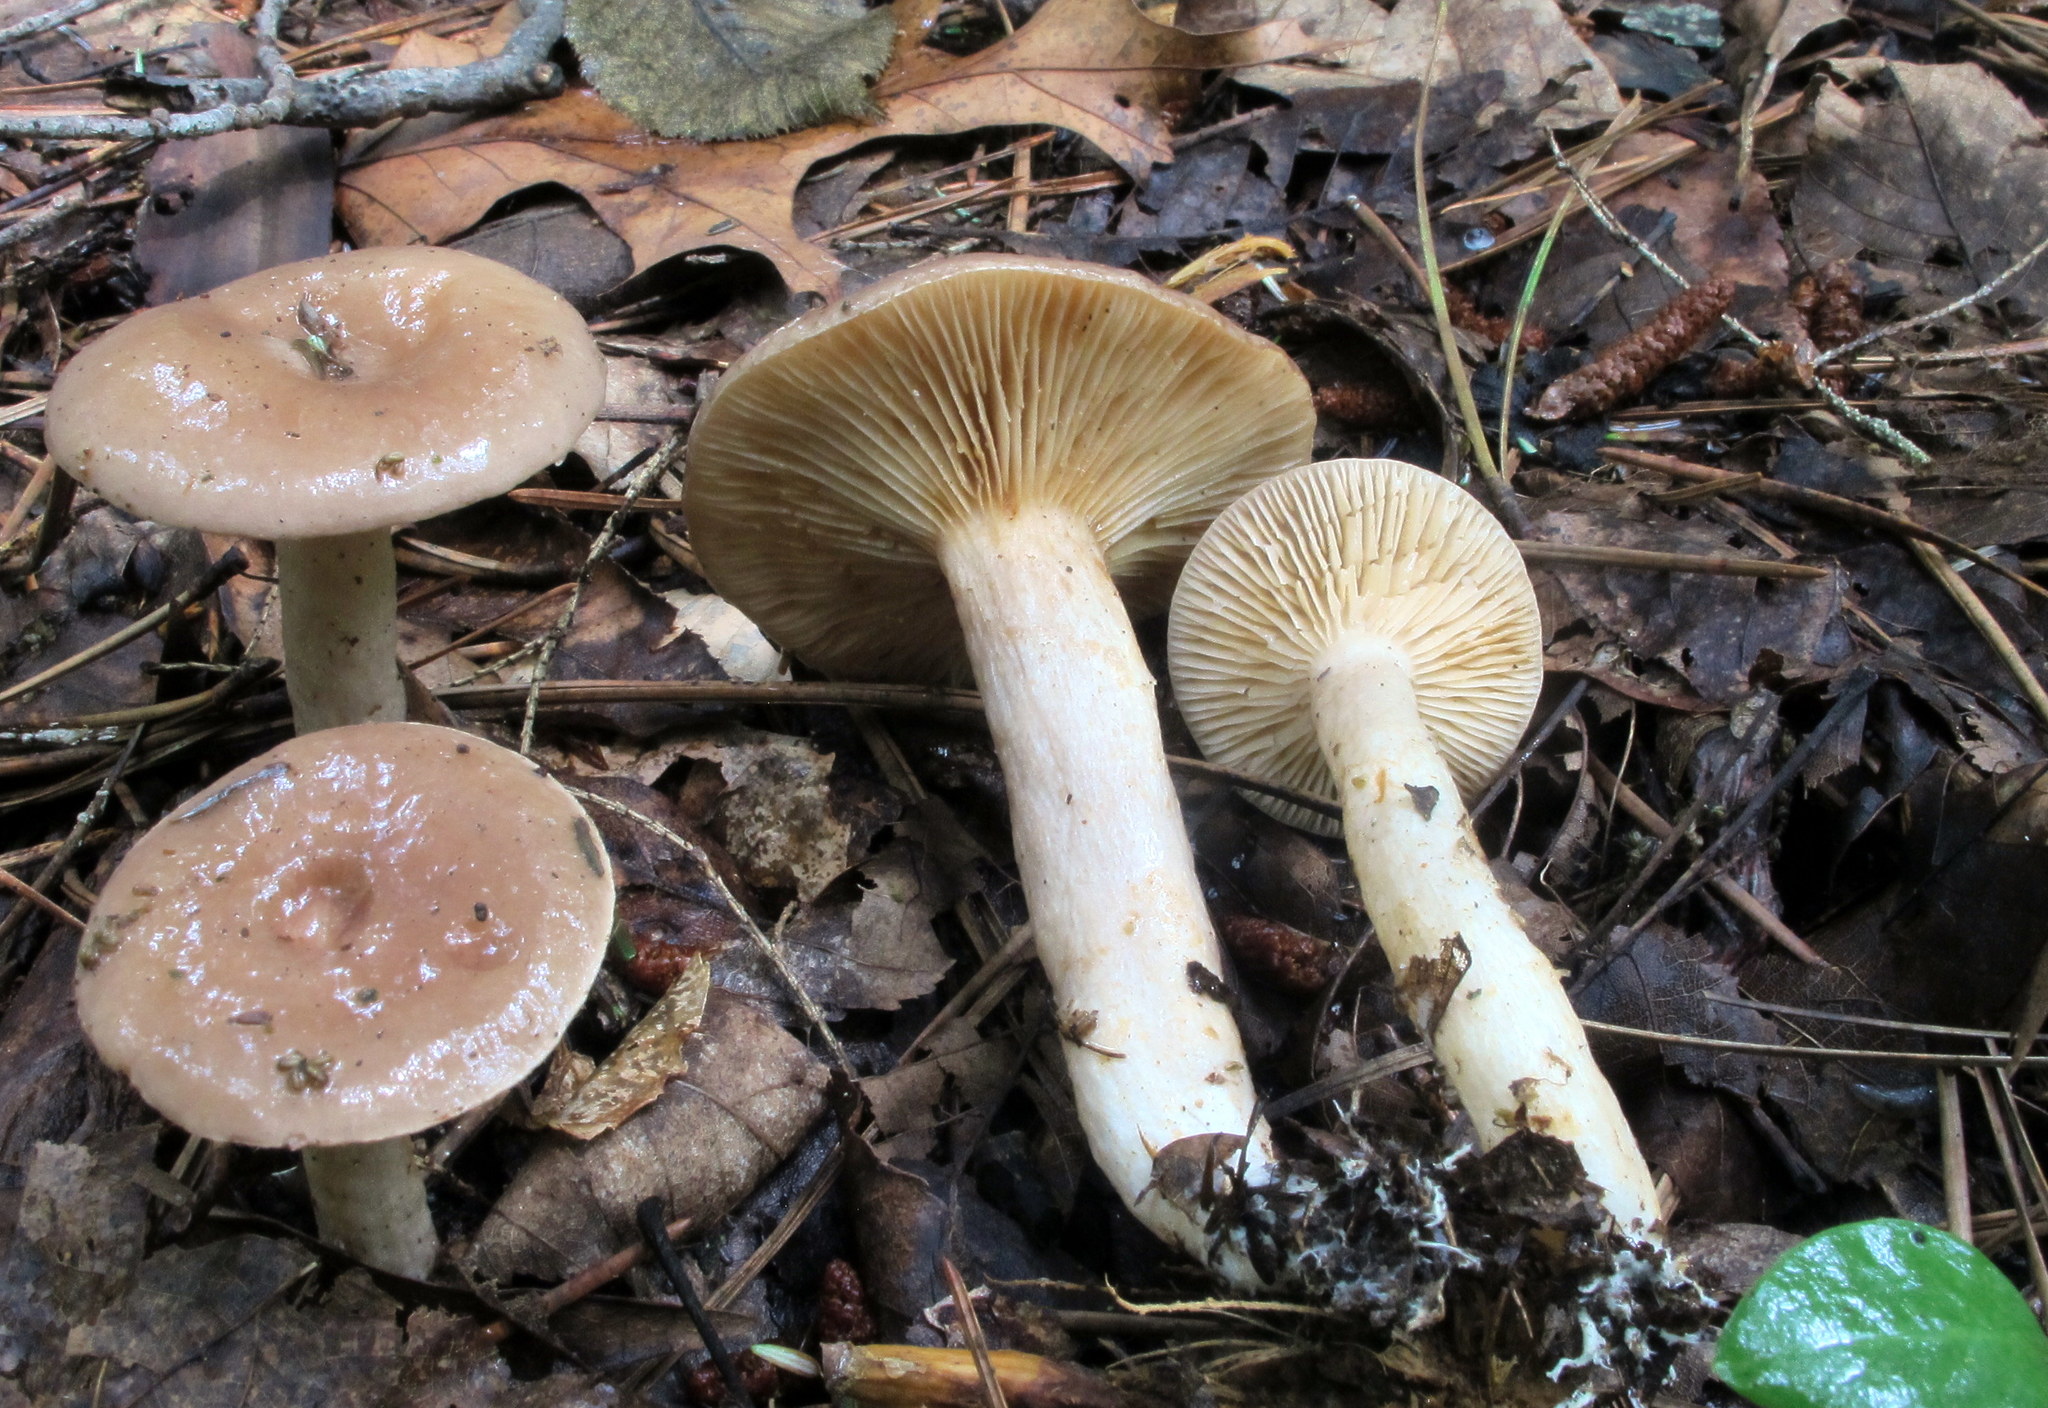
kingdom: Fungi
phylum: Basidiomycota
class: Agaricomycetes
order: Russulales
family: Russulaceae
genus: Lactarius
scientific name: Lactarius mucidus
